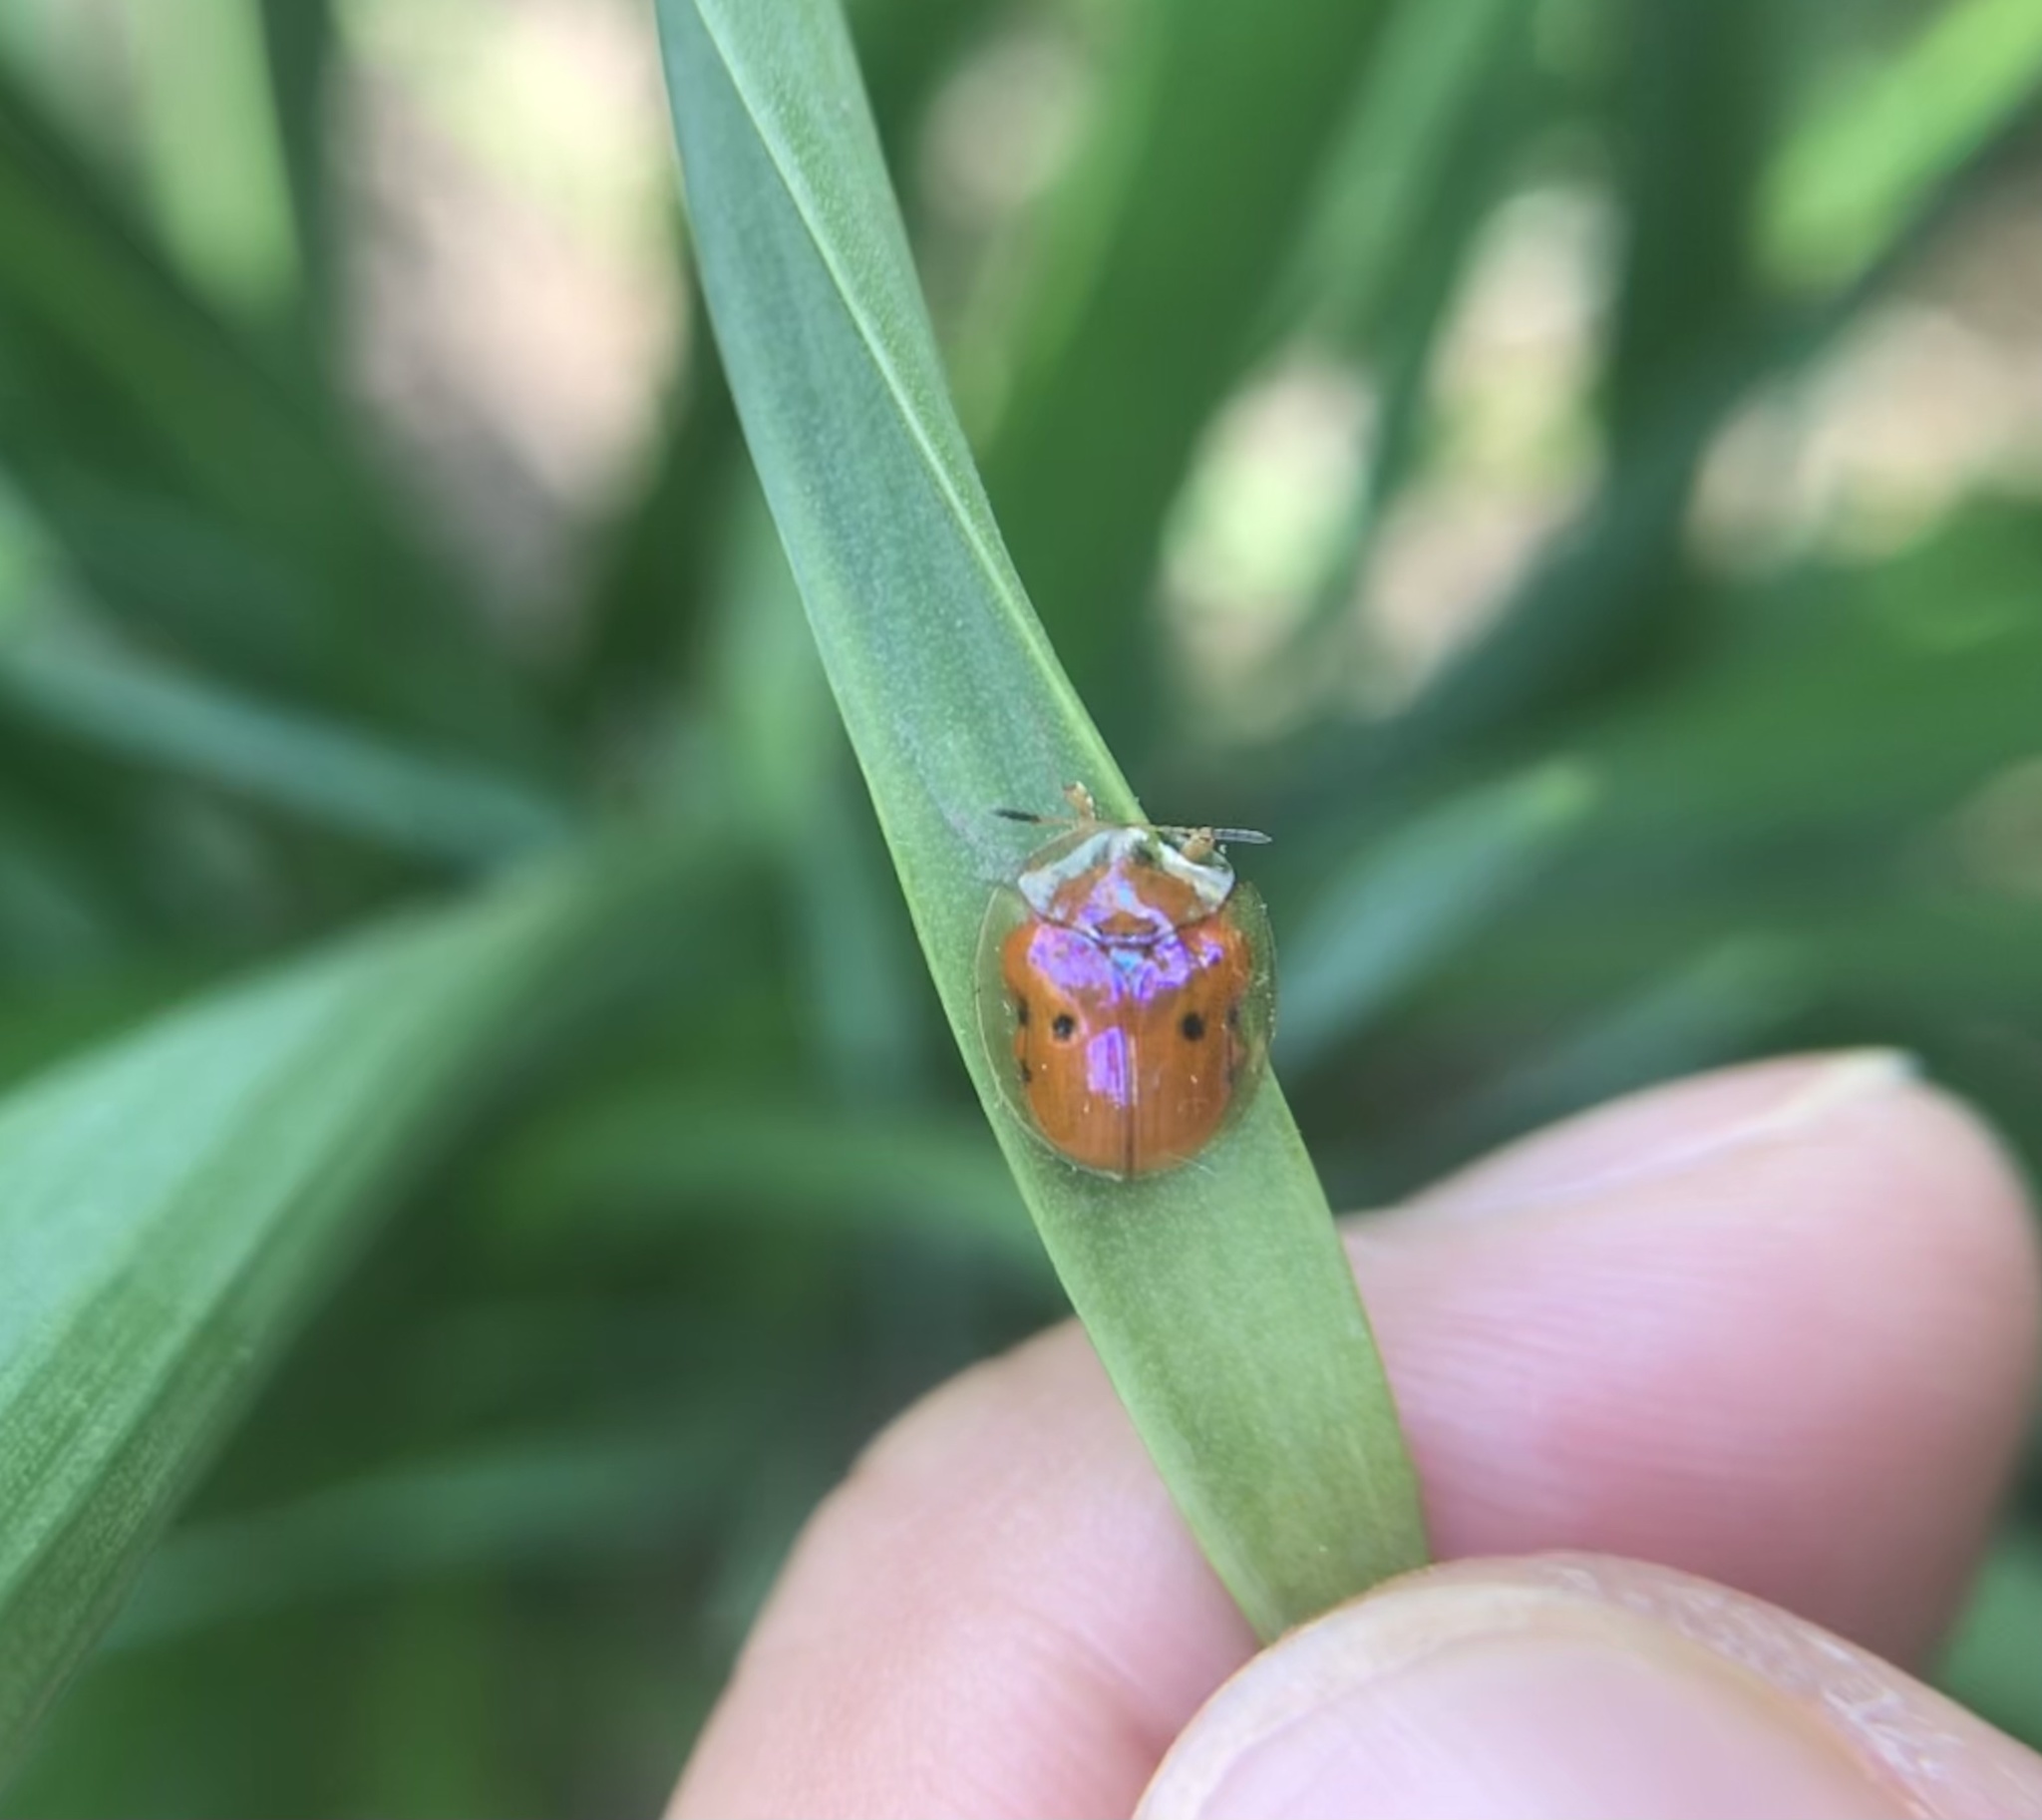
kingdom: Animalia
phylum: Arthropoda
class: Insecta
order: Coleoptera
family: Chrysomelidae
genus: Charidotella
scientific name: Charidotella sexpunctata
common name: Golden tortoise beetle
